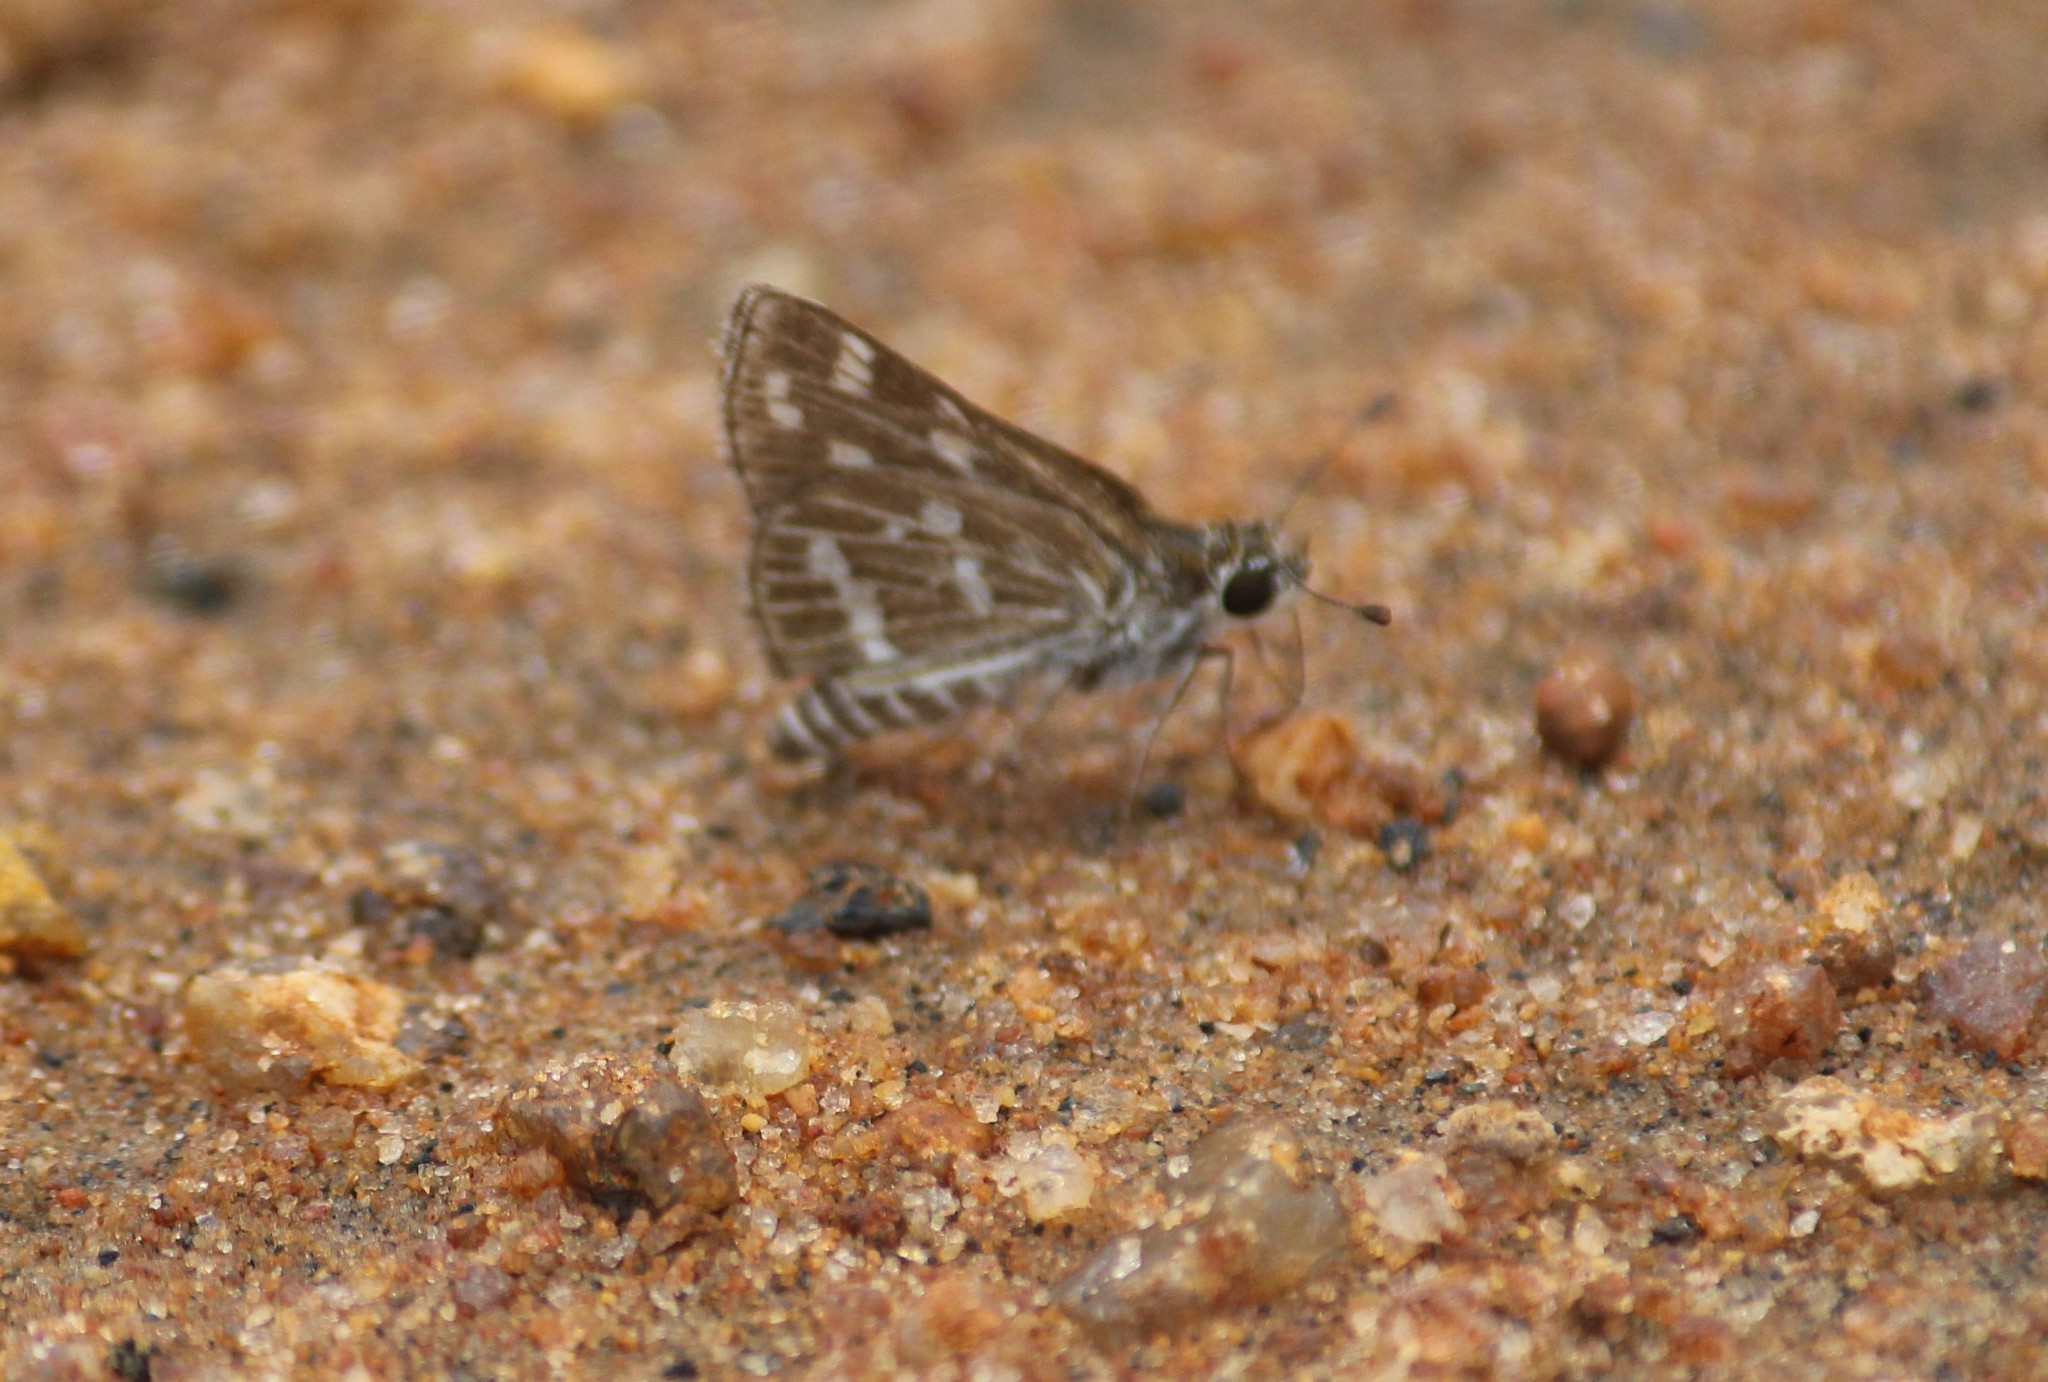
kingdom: Animalia
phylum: Arthropoda
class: Insecta
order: Lepidoptera
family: Hesperiidae
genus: Taractrocera
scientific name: Taractrocera maevius
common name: Common grass-dart
